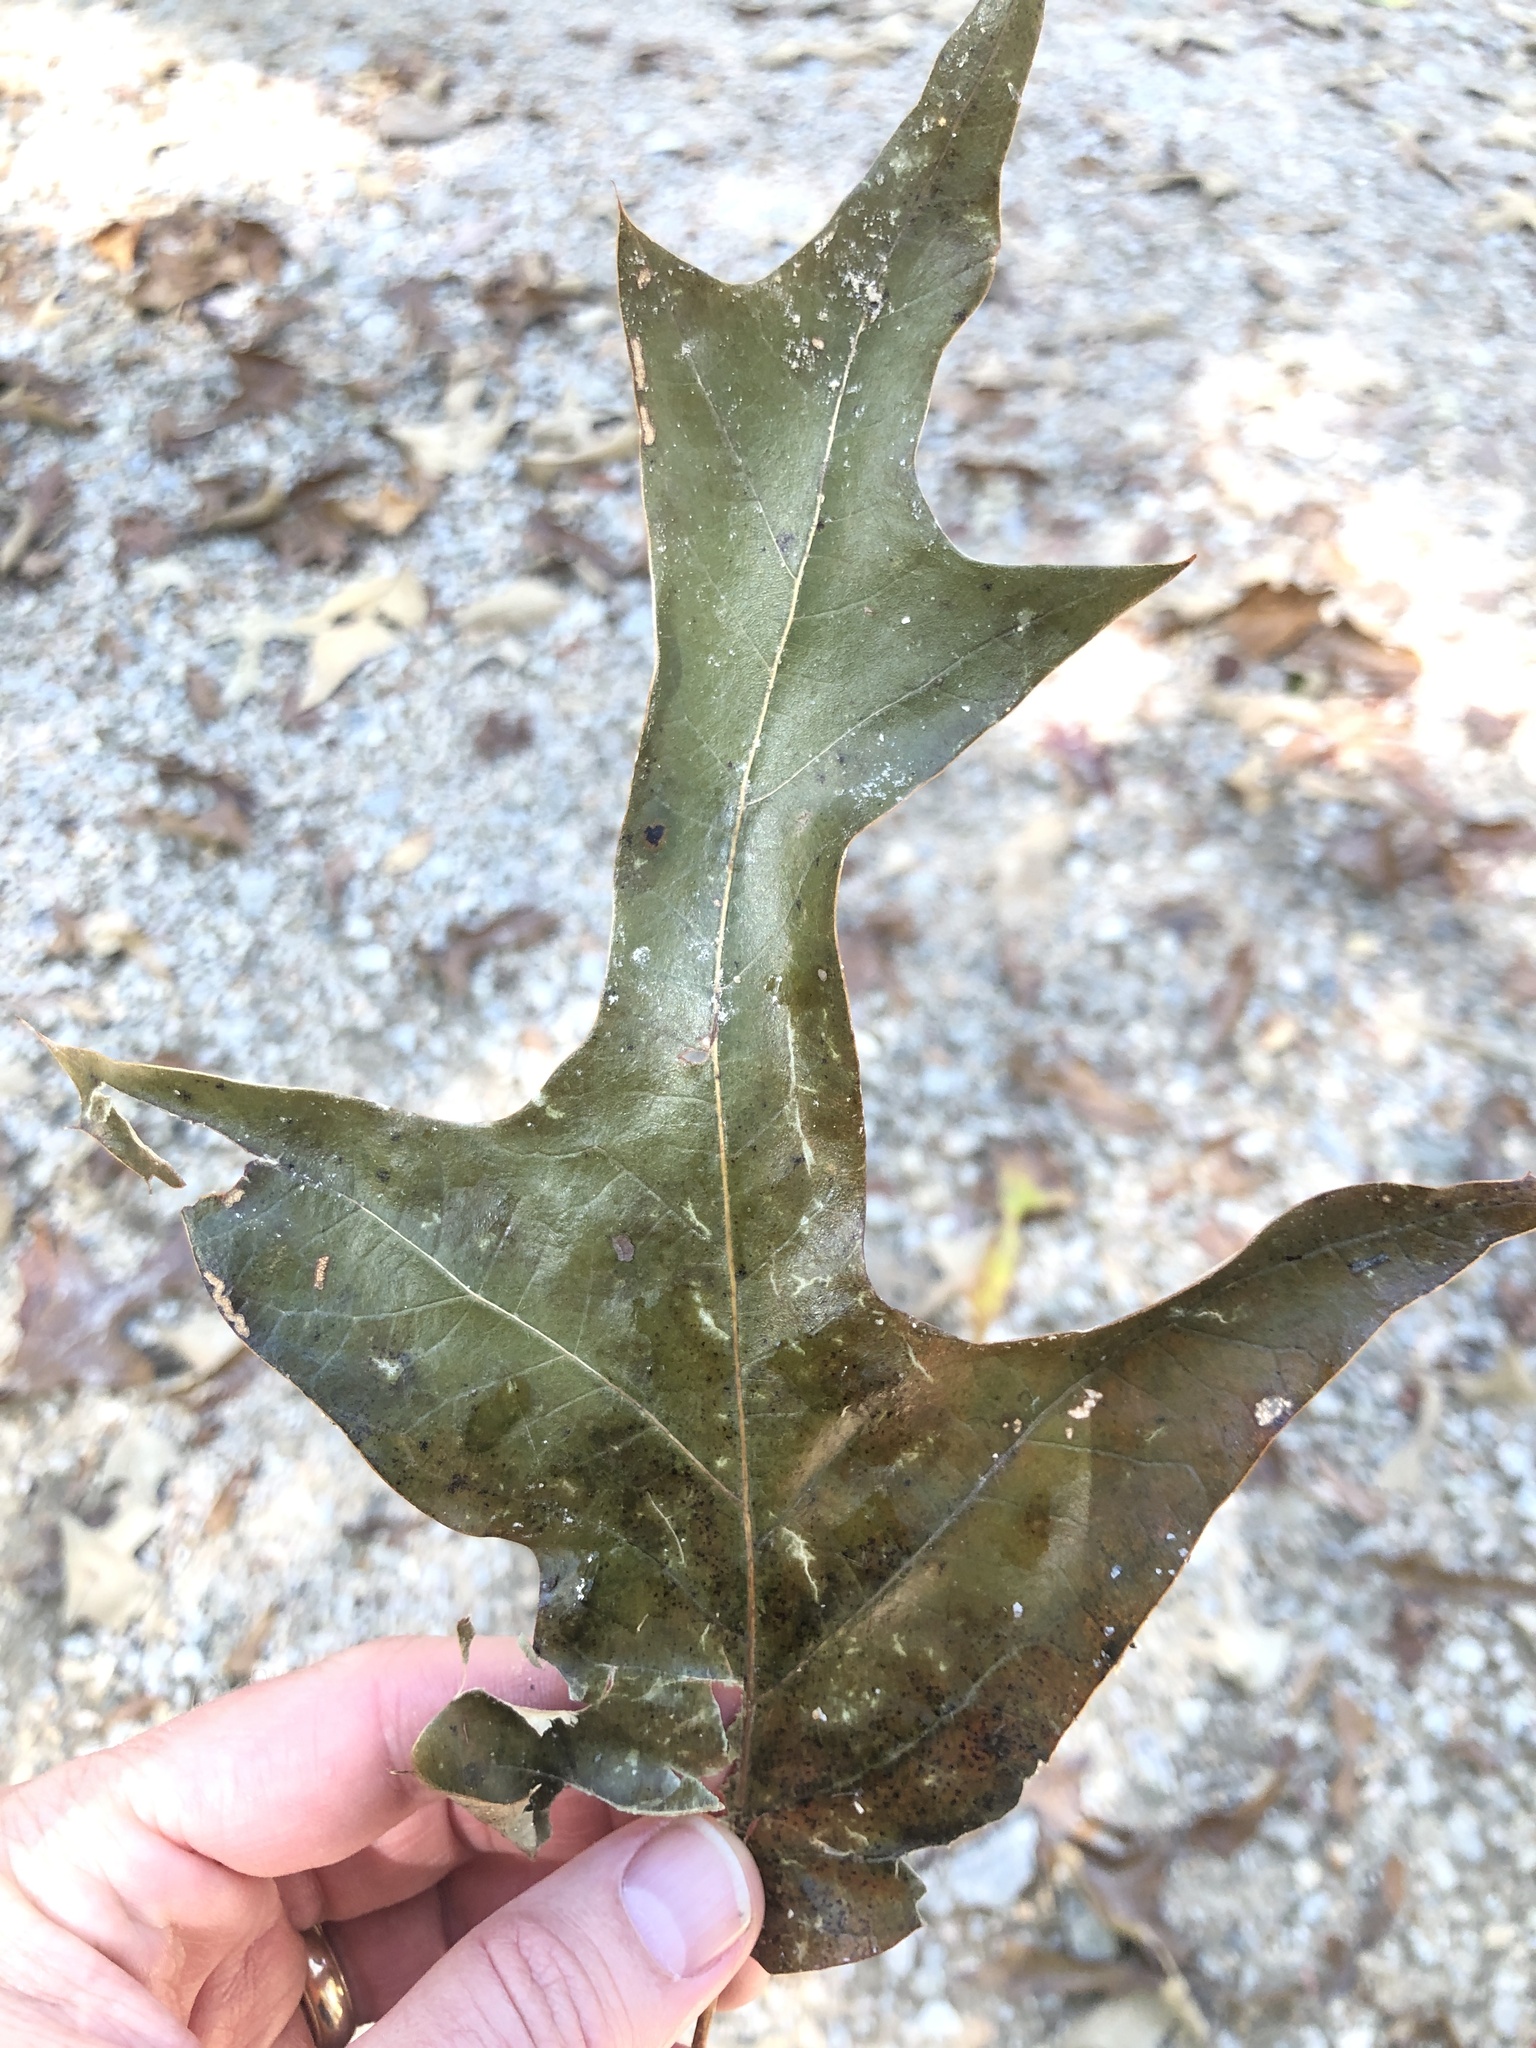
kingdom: Plantae
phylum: Tracheophyta
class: Magnoliopsida
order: Fagales
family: Fagaceae
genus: Quercus
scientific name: Quercus falcata
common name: Southern red oak
